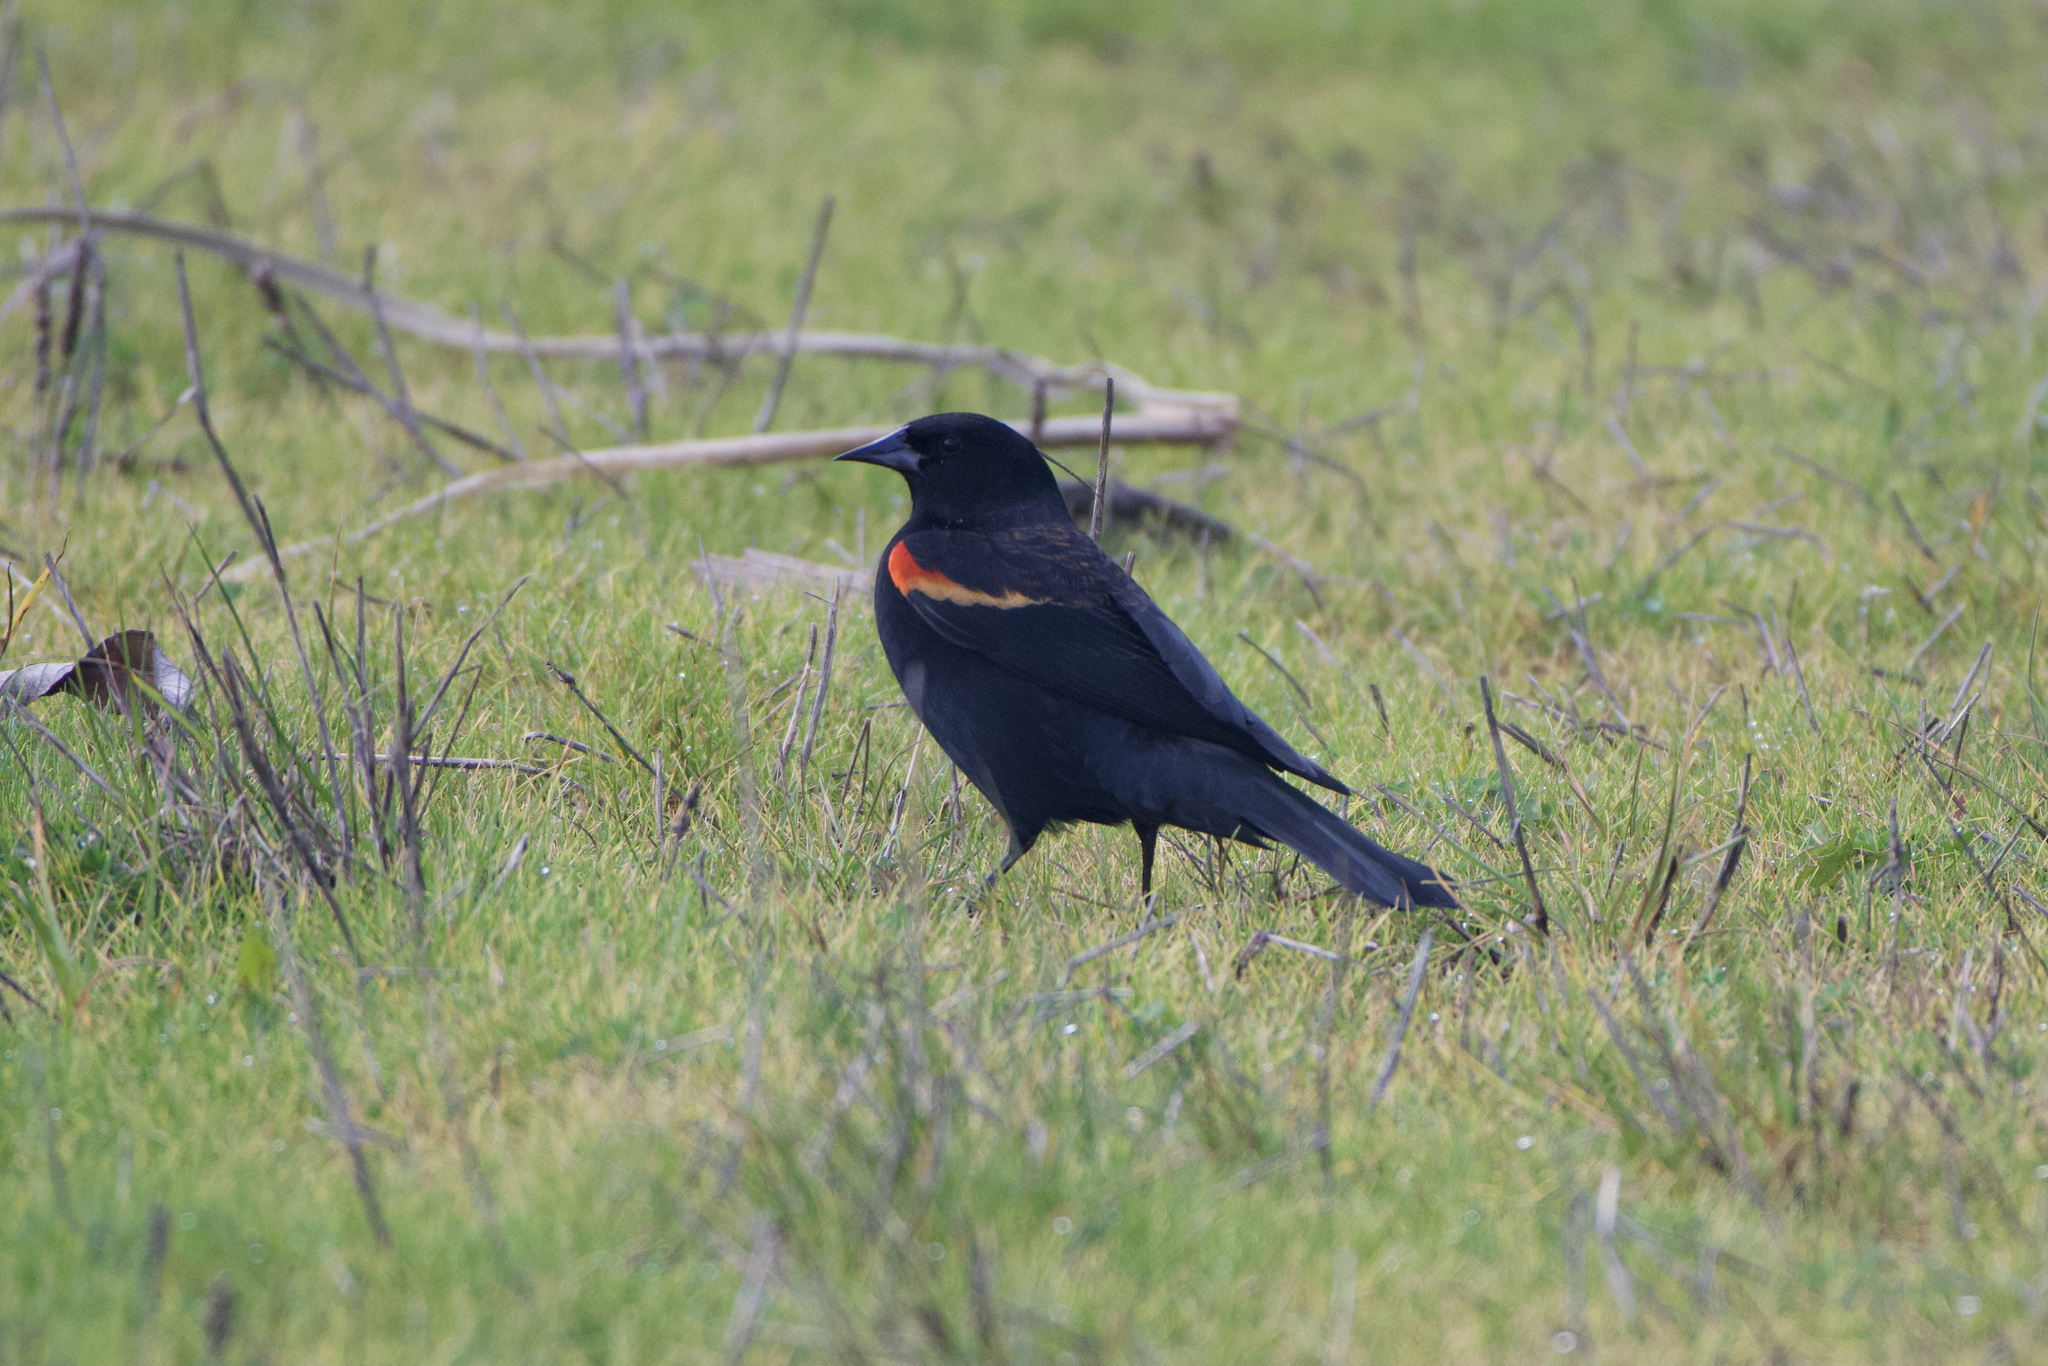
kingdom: Animalia
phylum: Chordata
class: Aves
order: Passeriformes
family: Icteridae
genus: Agelaius
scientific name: Agelaius phoeniceus
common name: Red-winged blackbird
